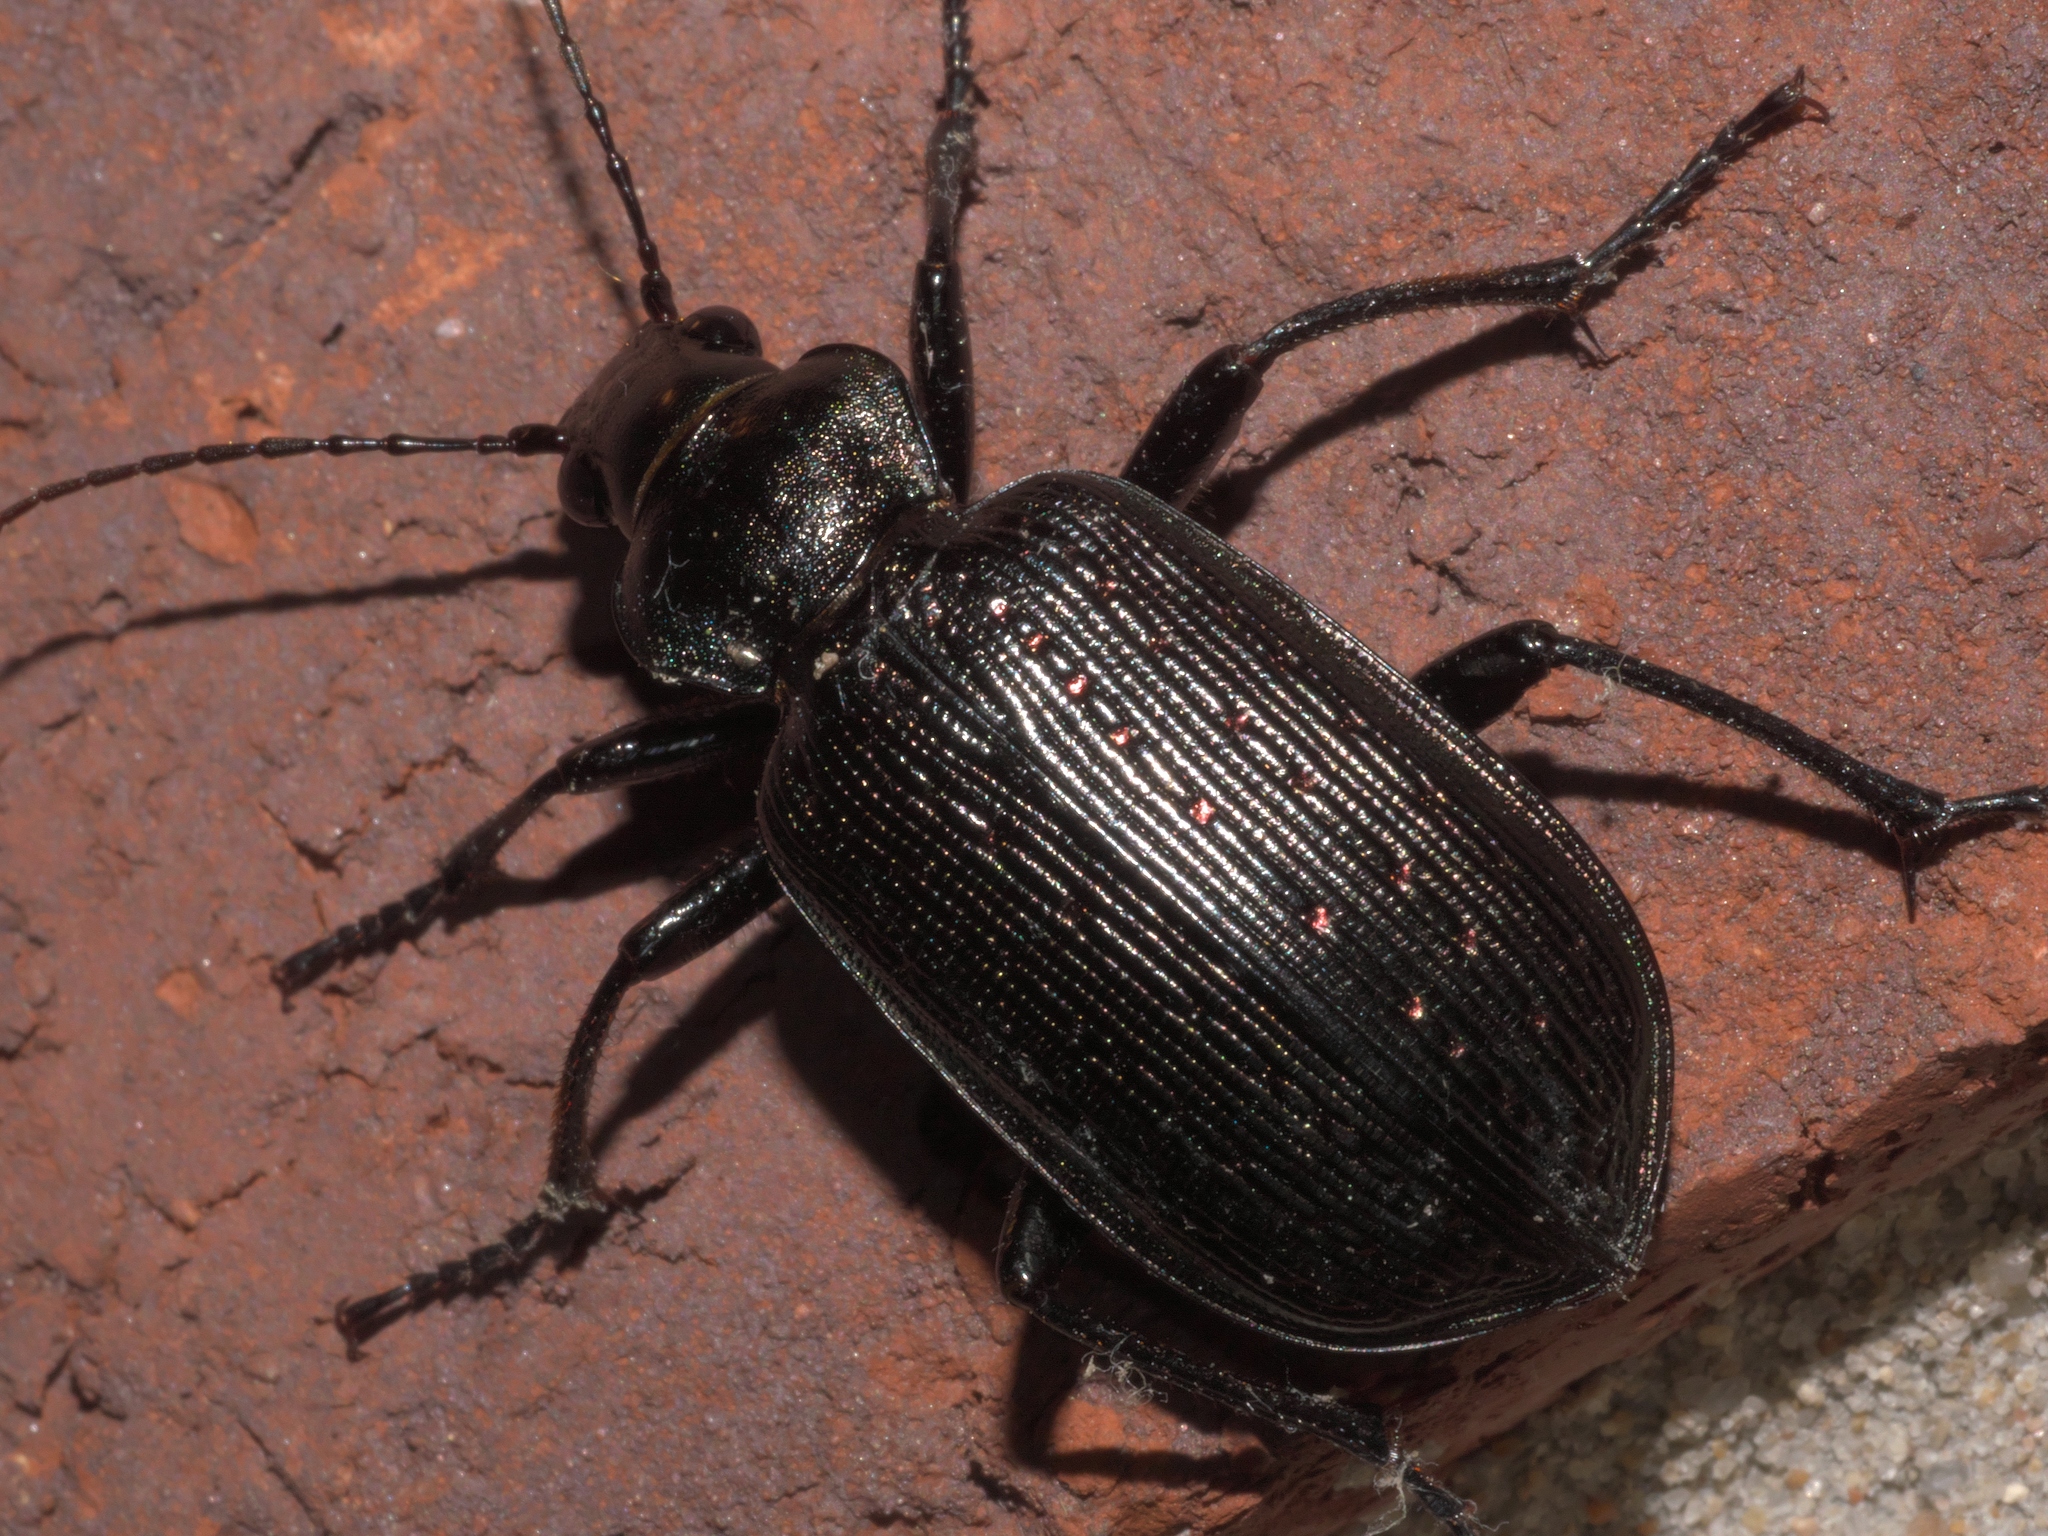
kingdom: Animalia
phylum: Arthropoda
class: Insecta
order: Coleoptera
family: Carabidae
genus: Calosoma
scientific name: Calosoma sayi
